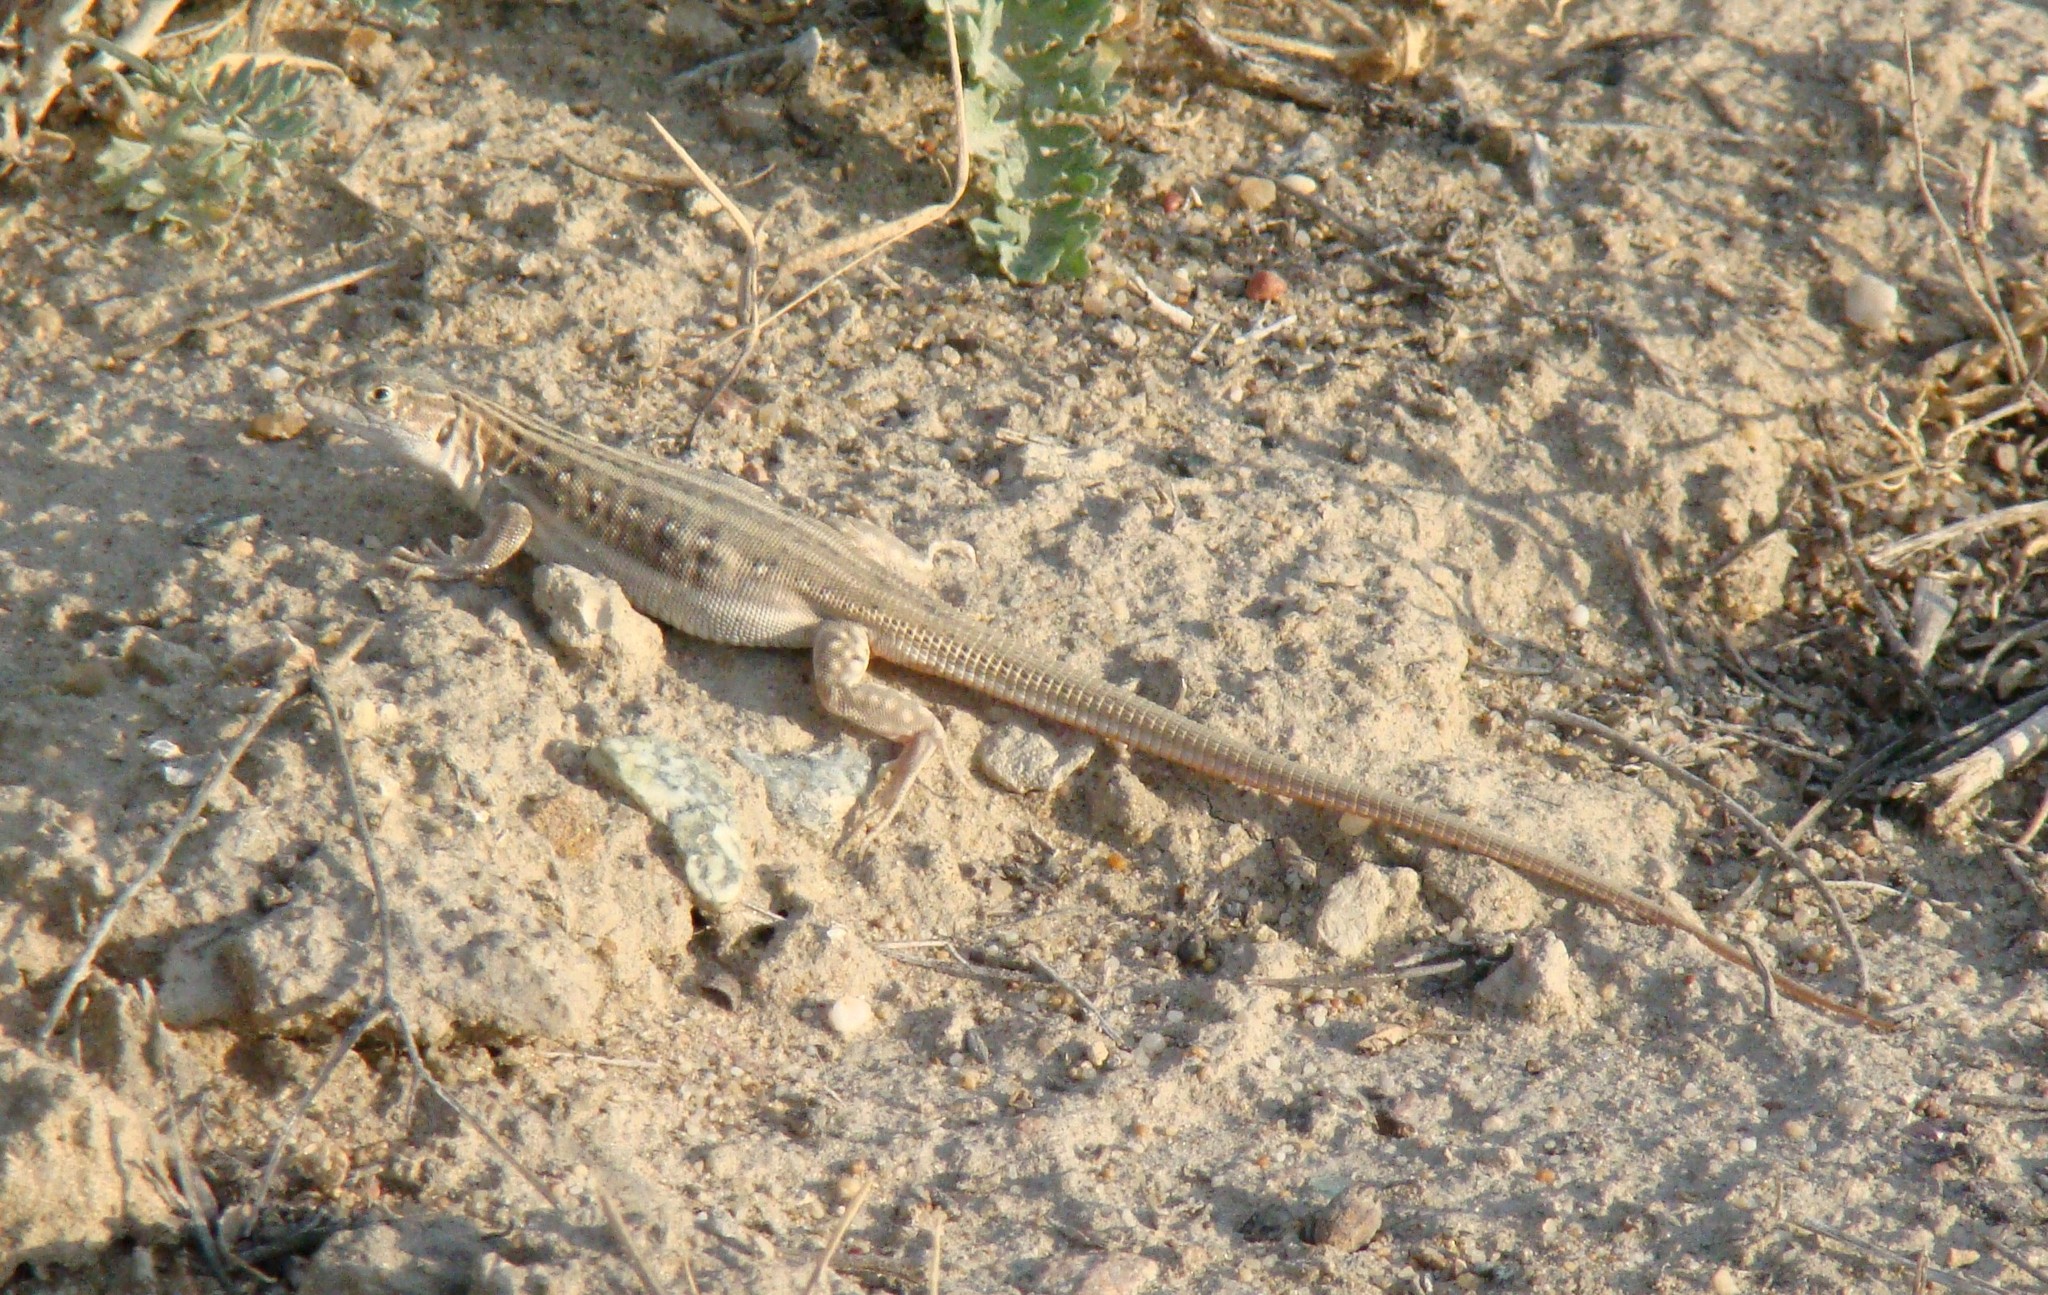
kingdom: Animalia
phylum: Chordata
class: Squamata
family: Lacertidae
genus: Eremias
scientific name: Eremias velox
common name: Central asian racerunner
